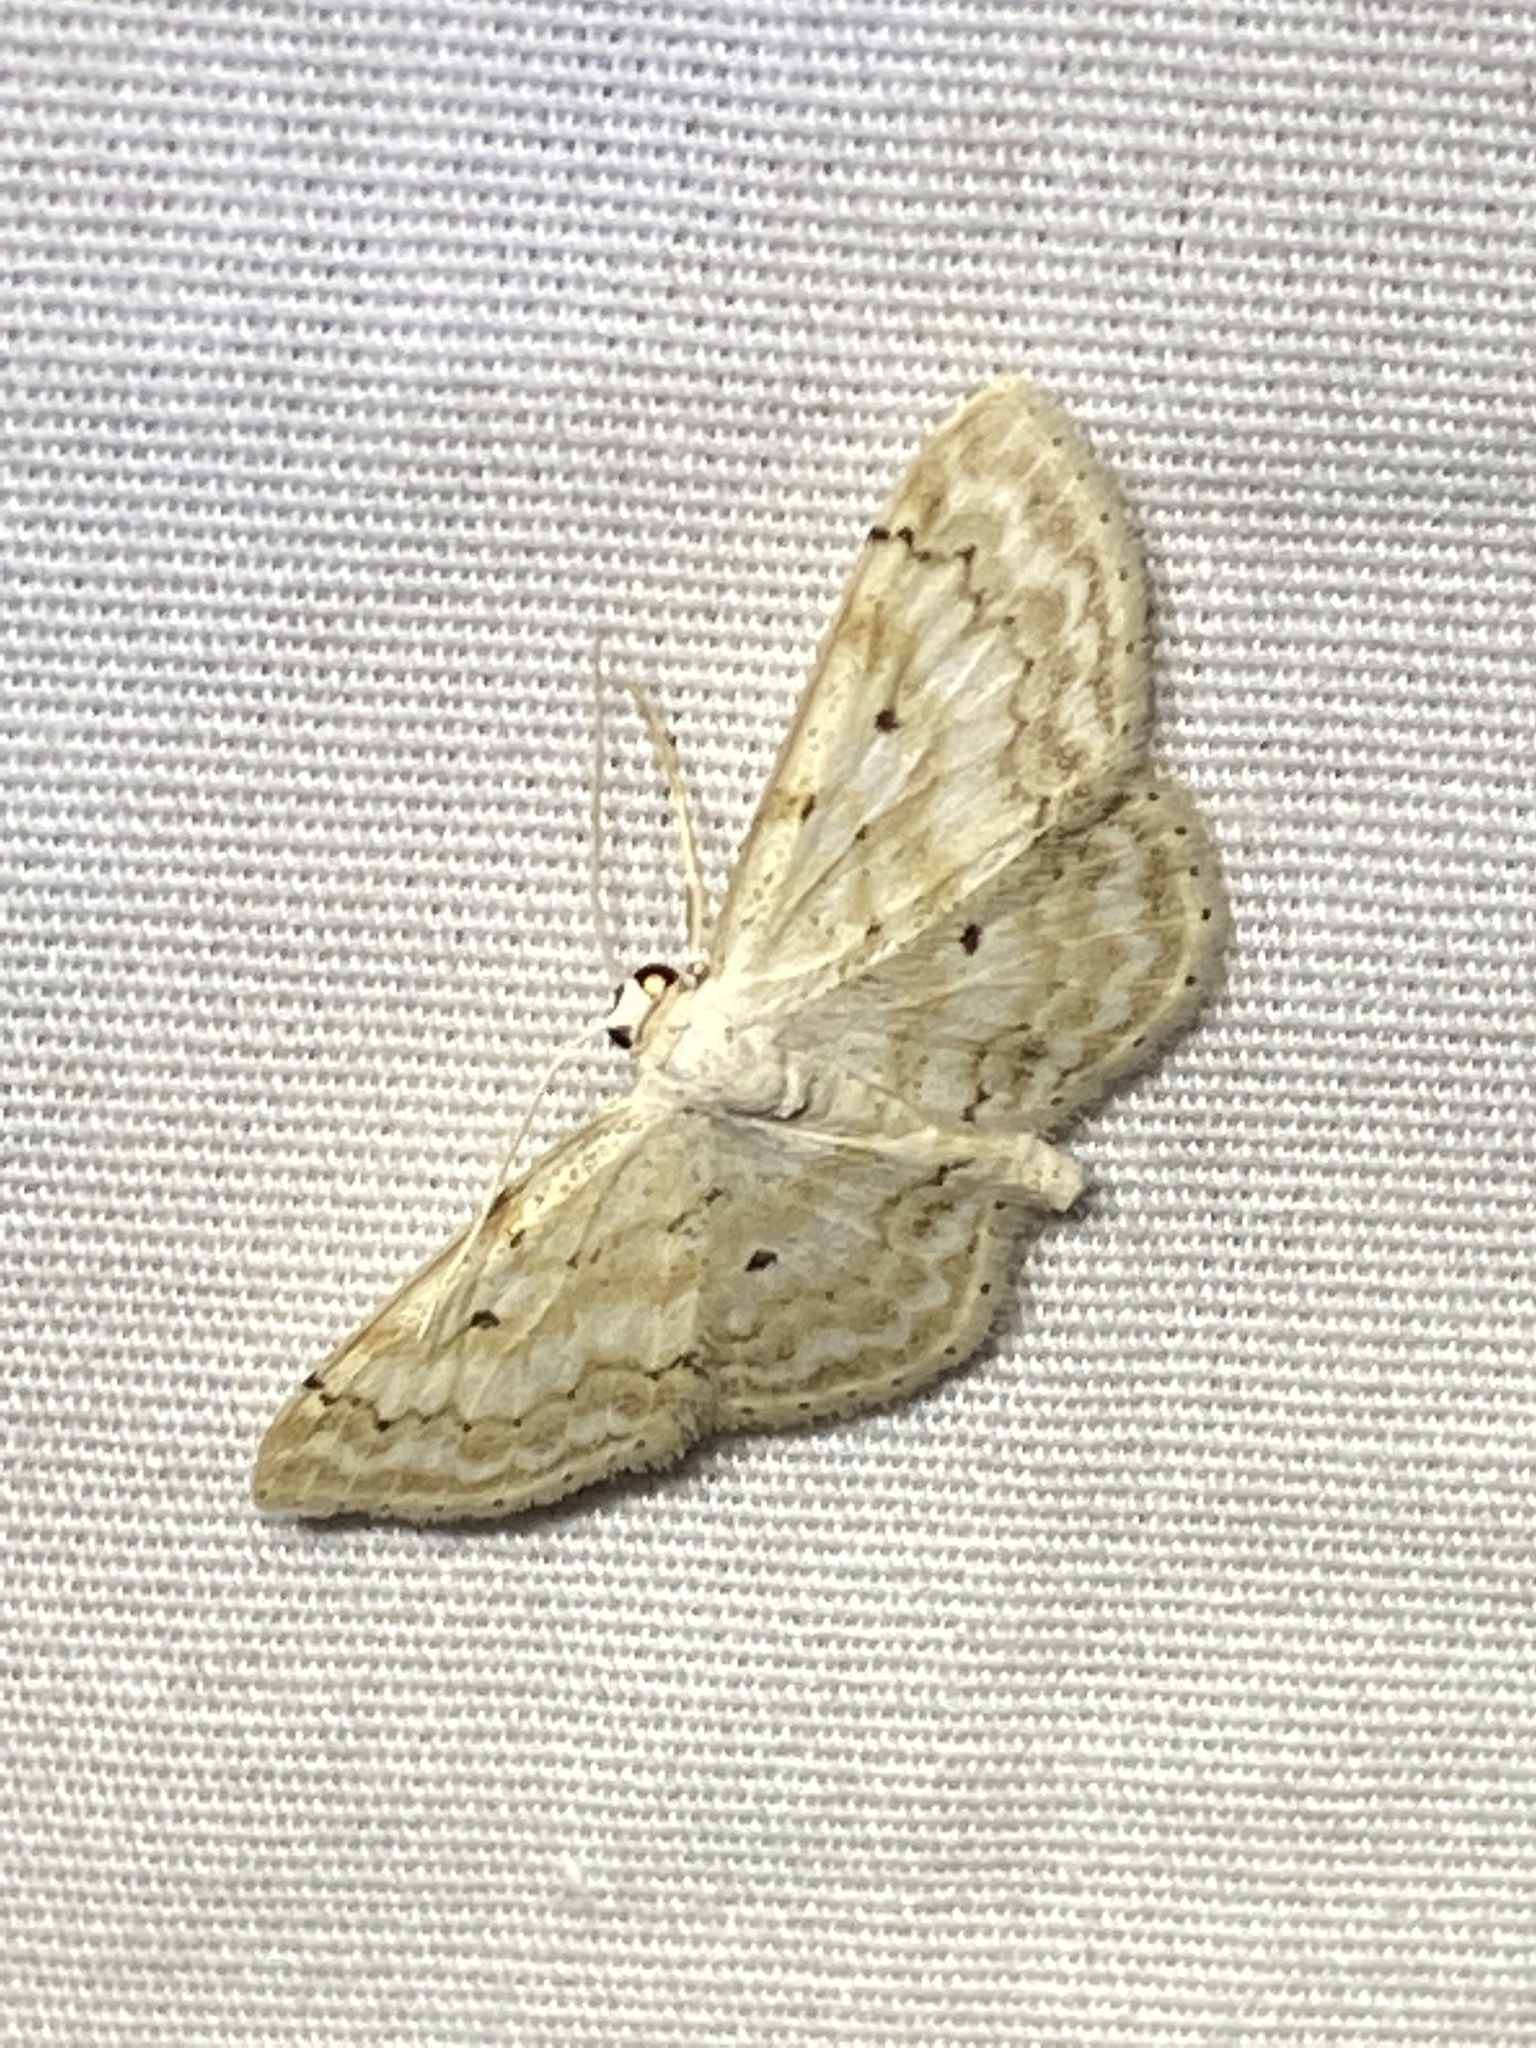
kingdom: Animalia
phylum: Arthropoda
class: Insecta
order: Lepidoptera
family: Geometridae
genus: Idaea
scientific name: Idaea obfusaria
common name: Rippled wave
